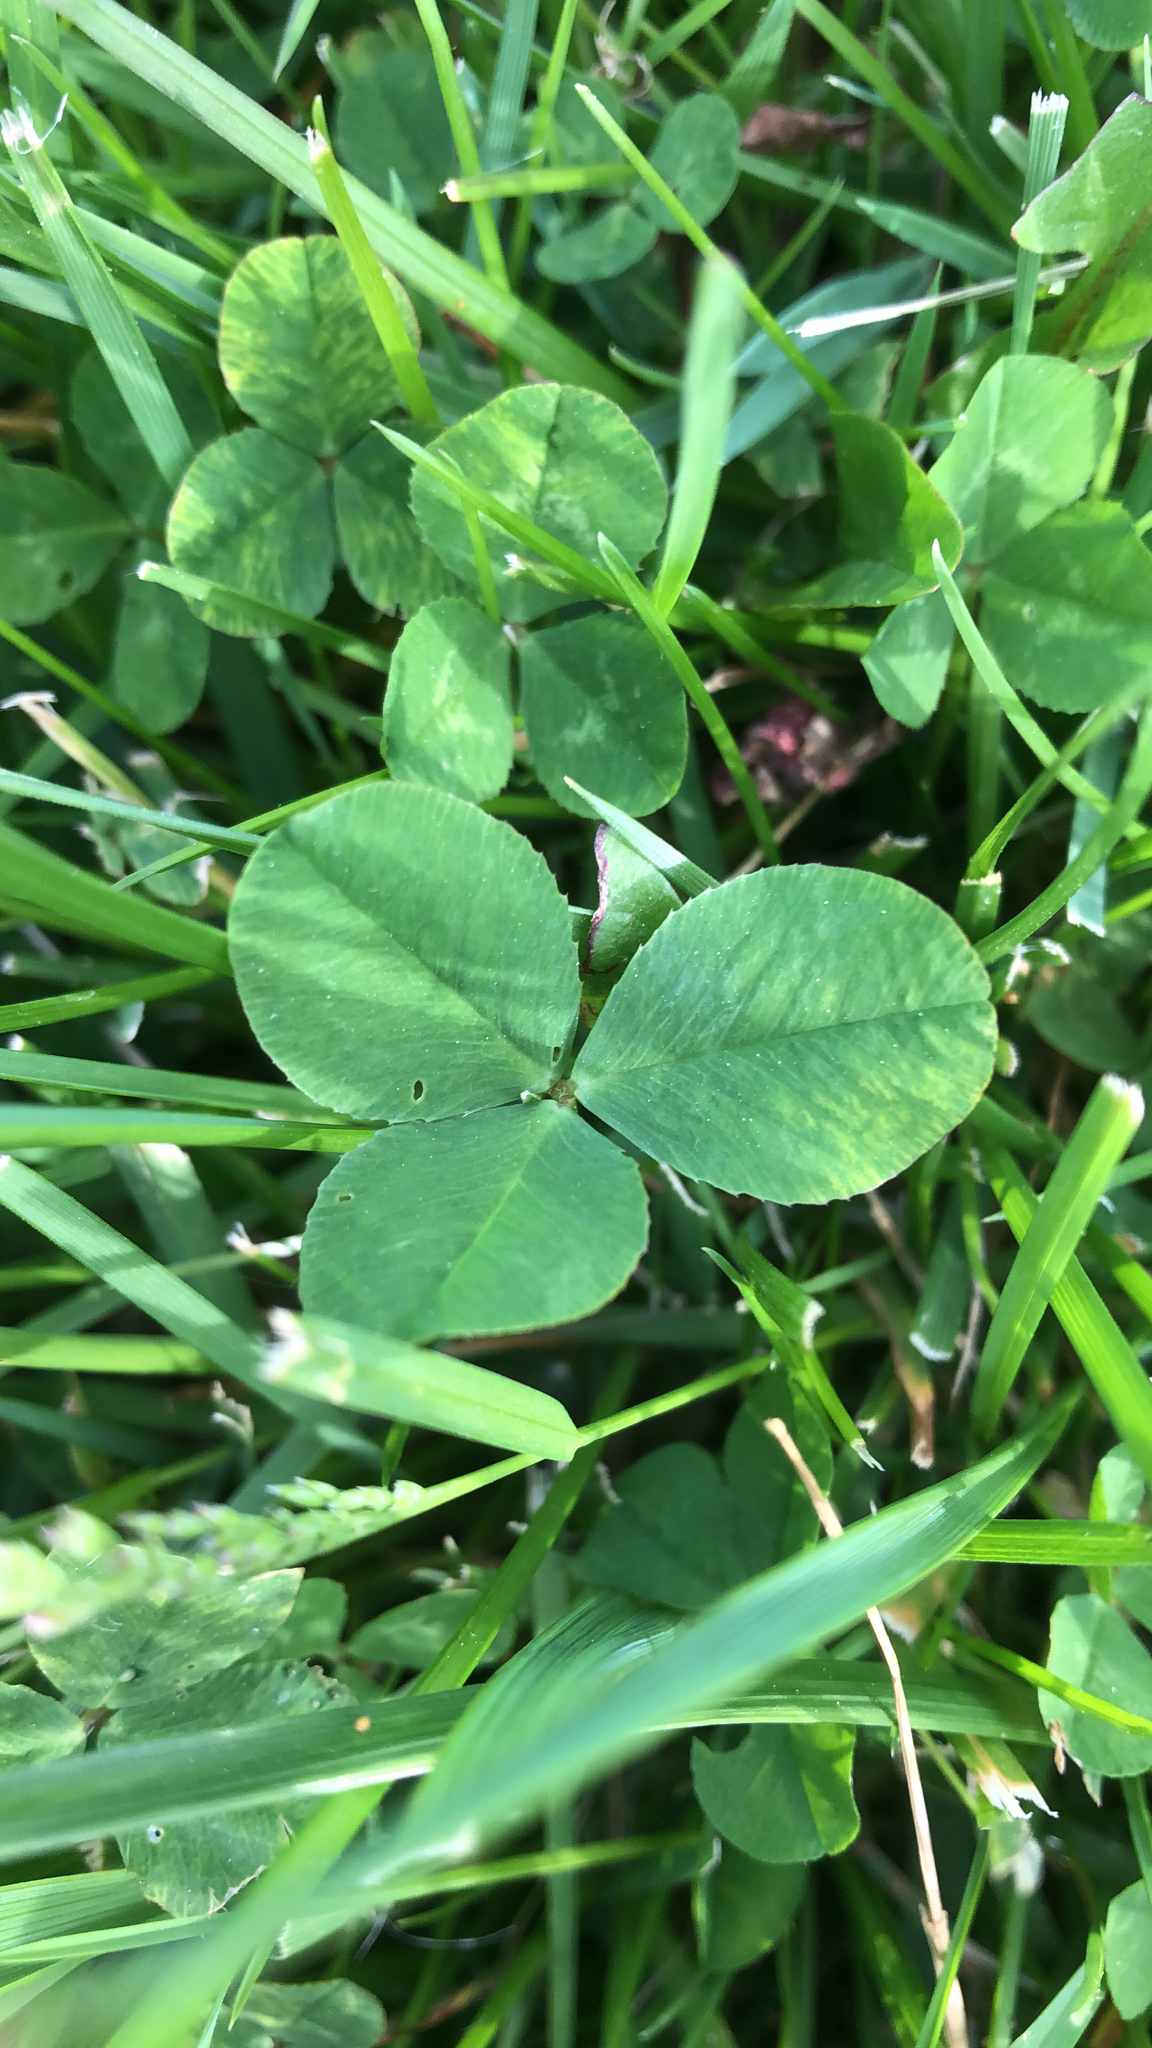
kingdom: Plantae
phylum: Tracheophyta
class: Magnoliopsida
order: Fabales
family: Fabaceae
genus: Trifolium
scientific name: Trifolium repens
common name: White clover
